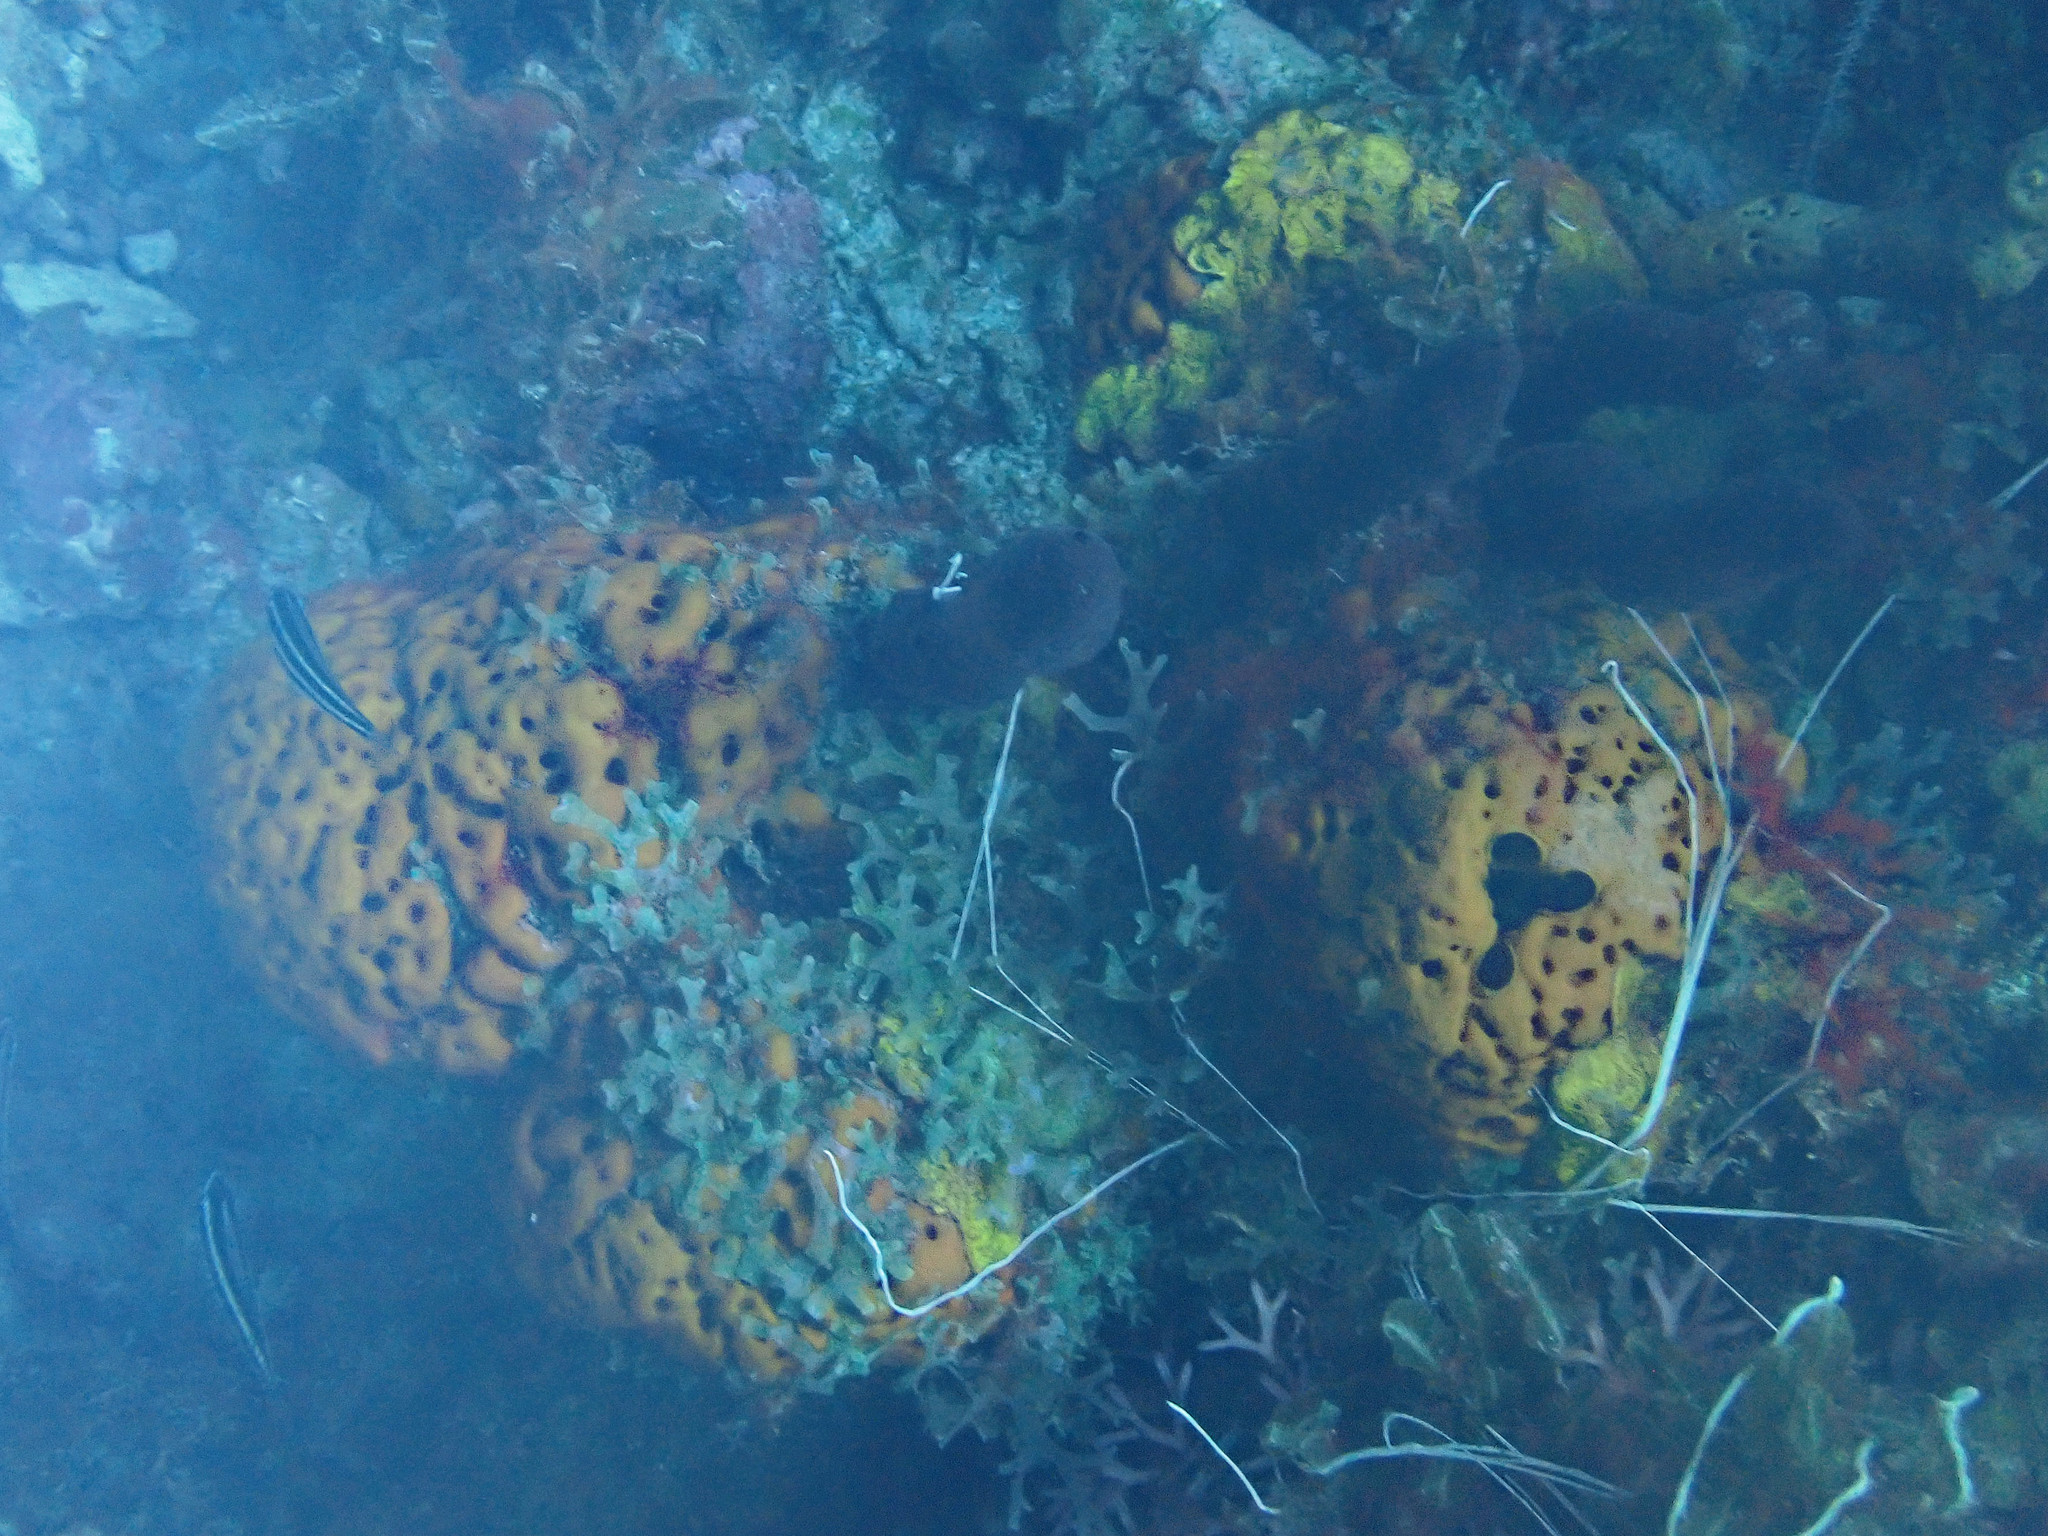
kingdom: Animalia
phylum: Porifera
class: Demospongiae
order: Agelasida
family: Agelasidae
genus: Agelas
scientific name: Agelas clathrodes
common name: Orange elephant ear sponge
